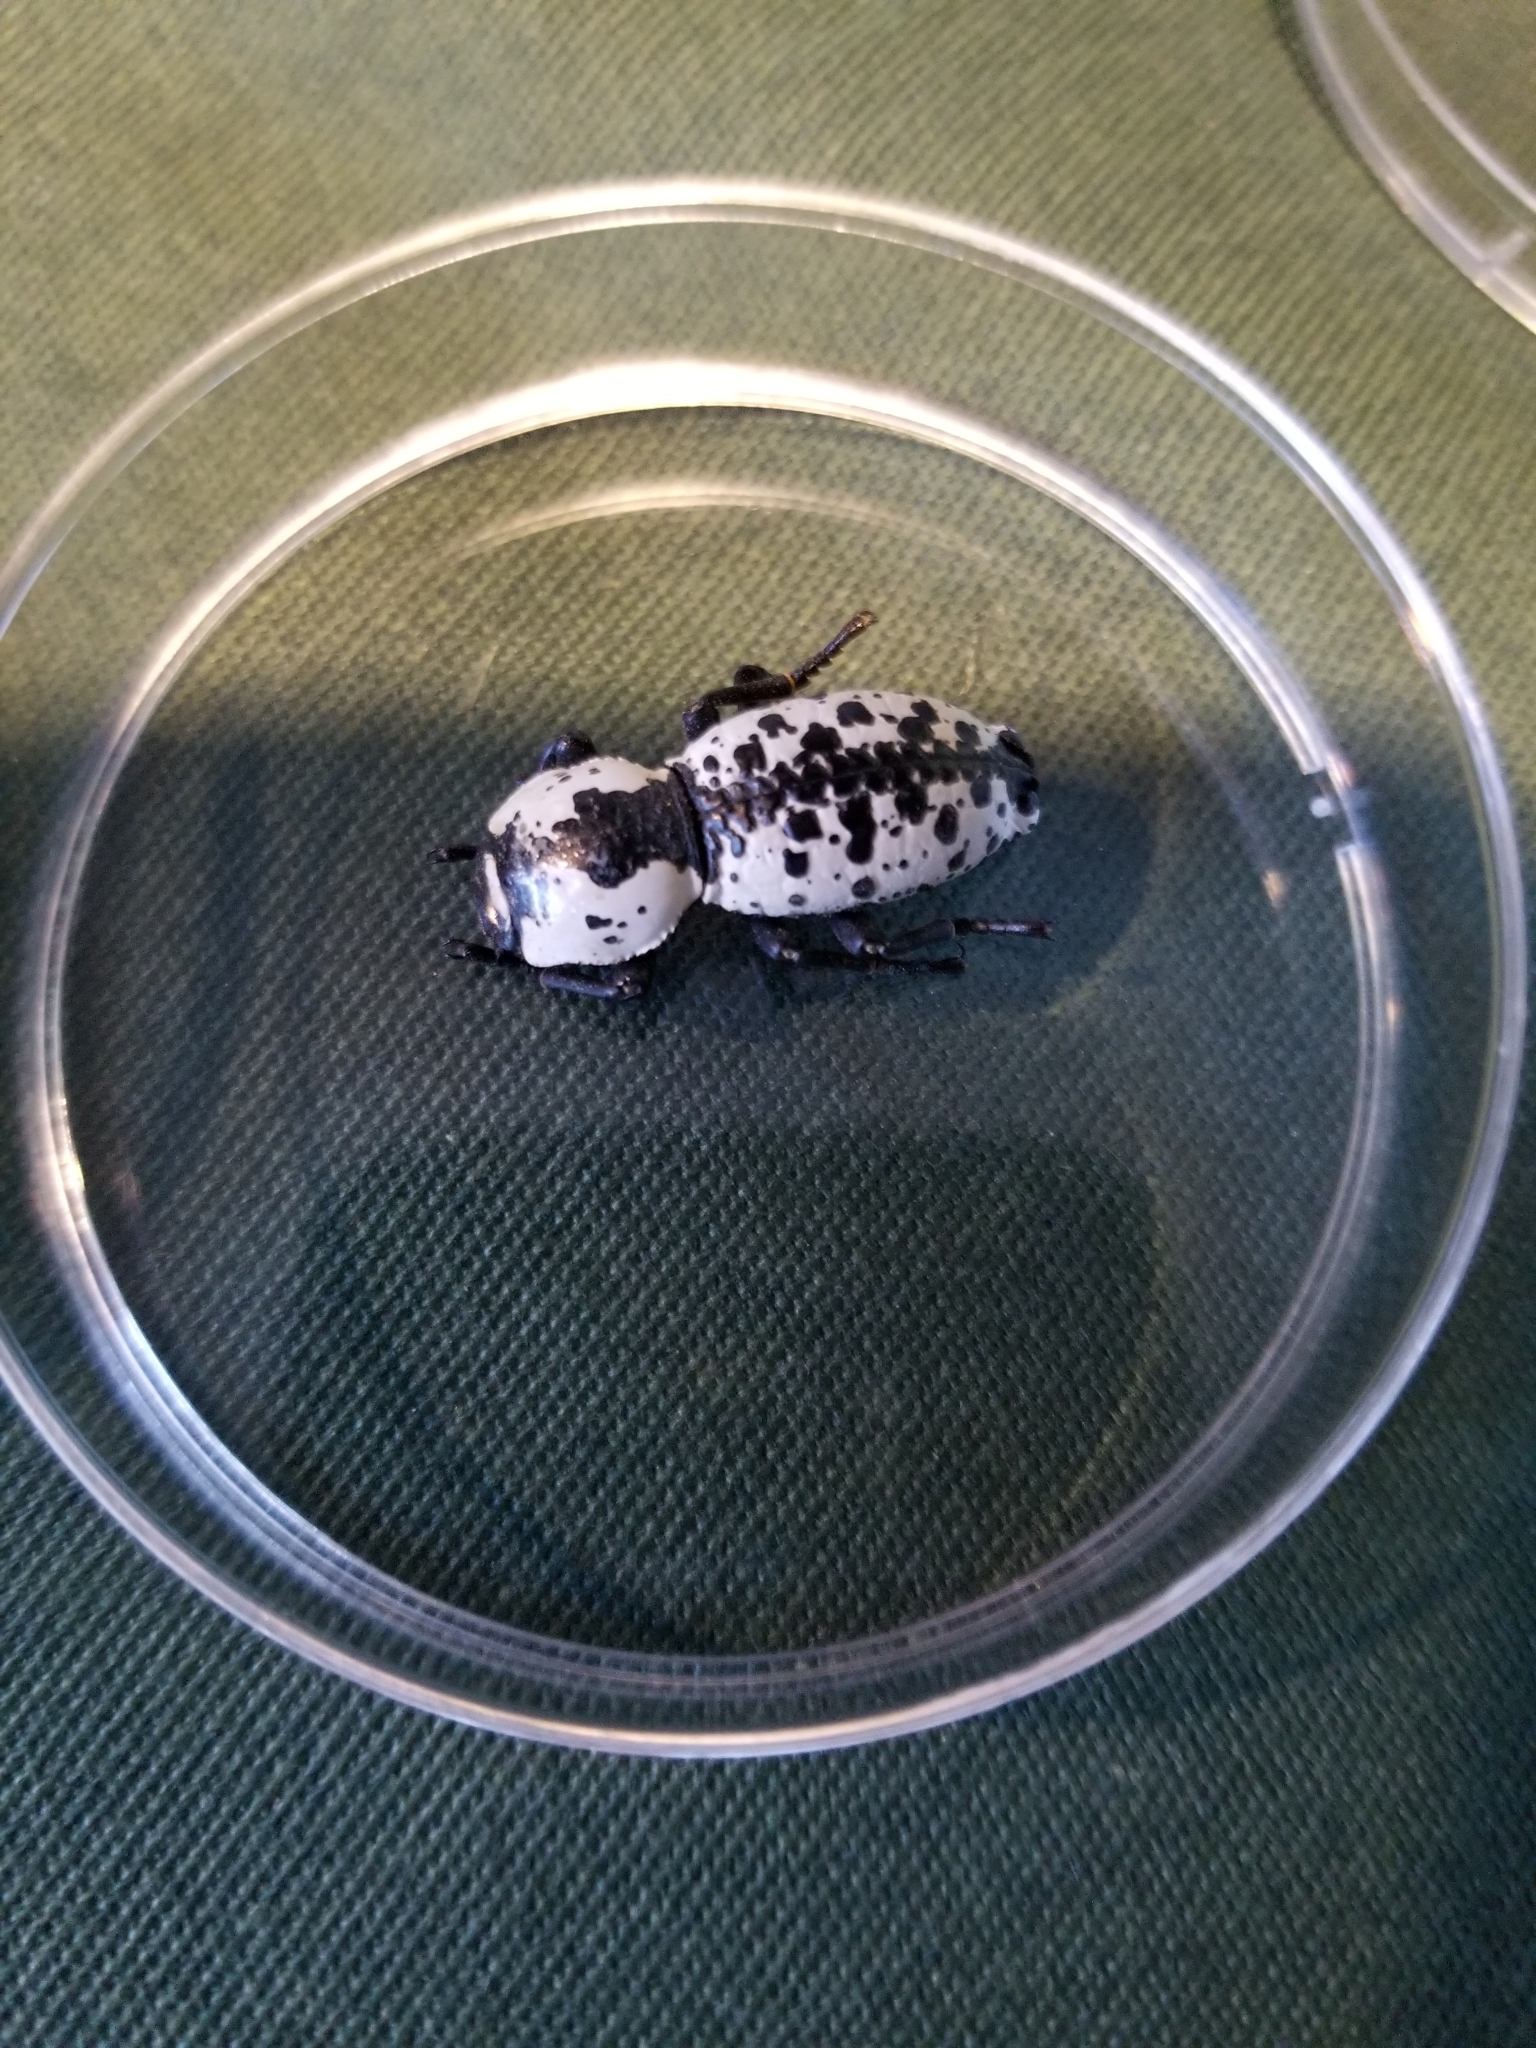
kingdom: Animalia
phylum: Arthropoda
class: Insecta
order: Coleoptera
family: Zopheridae
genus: Zopherus
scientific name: Zopherus nodulosus
